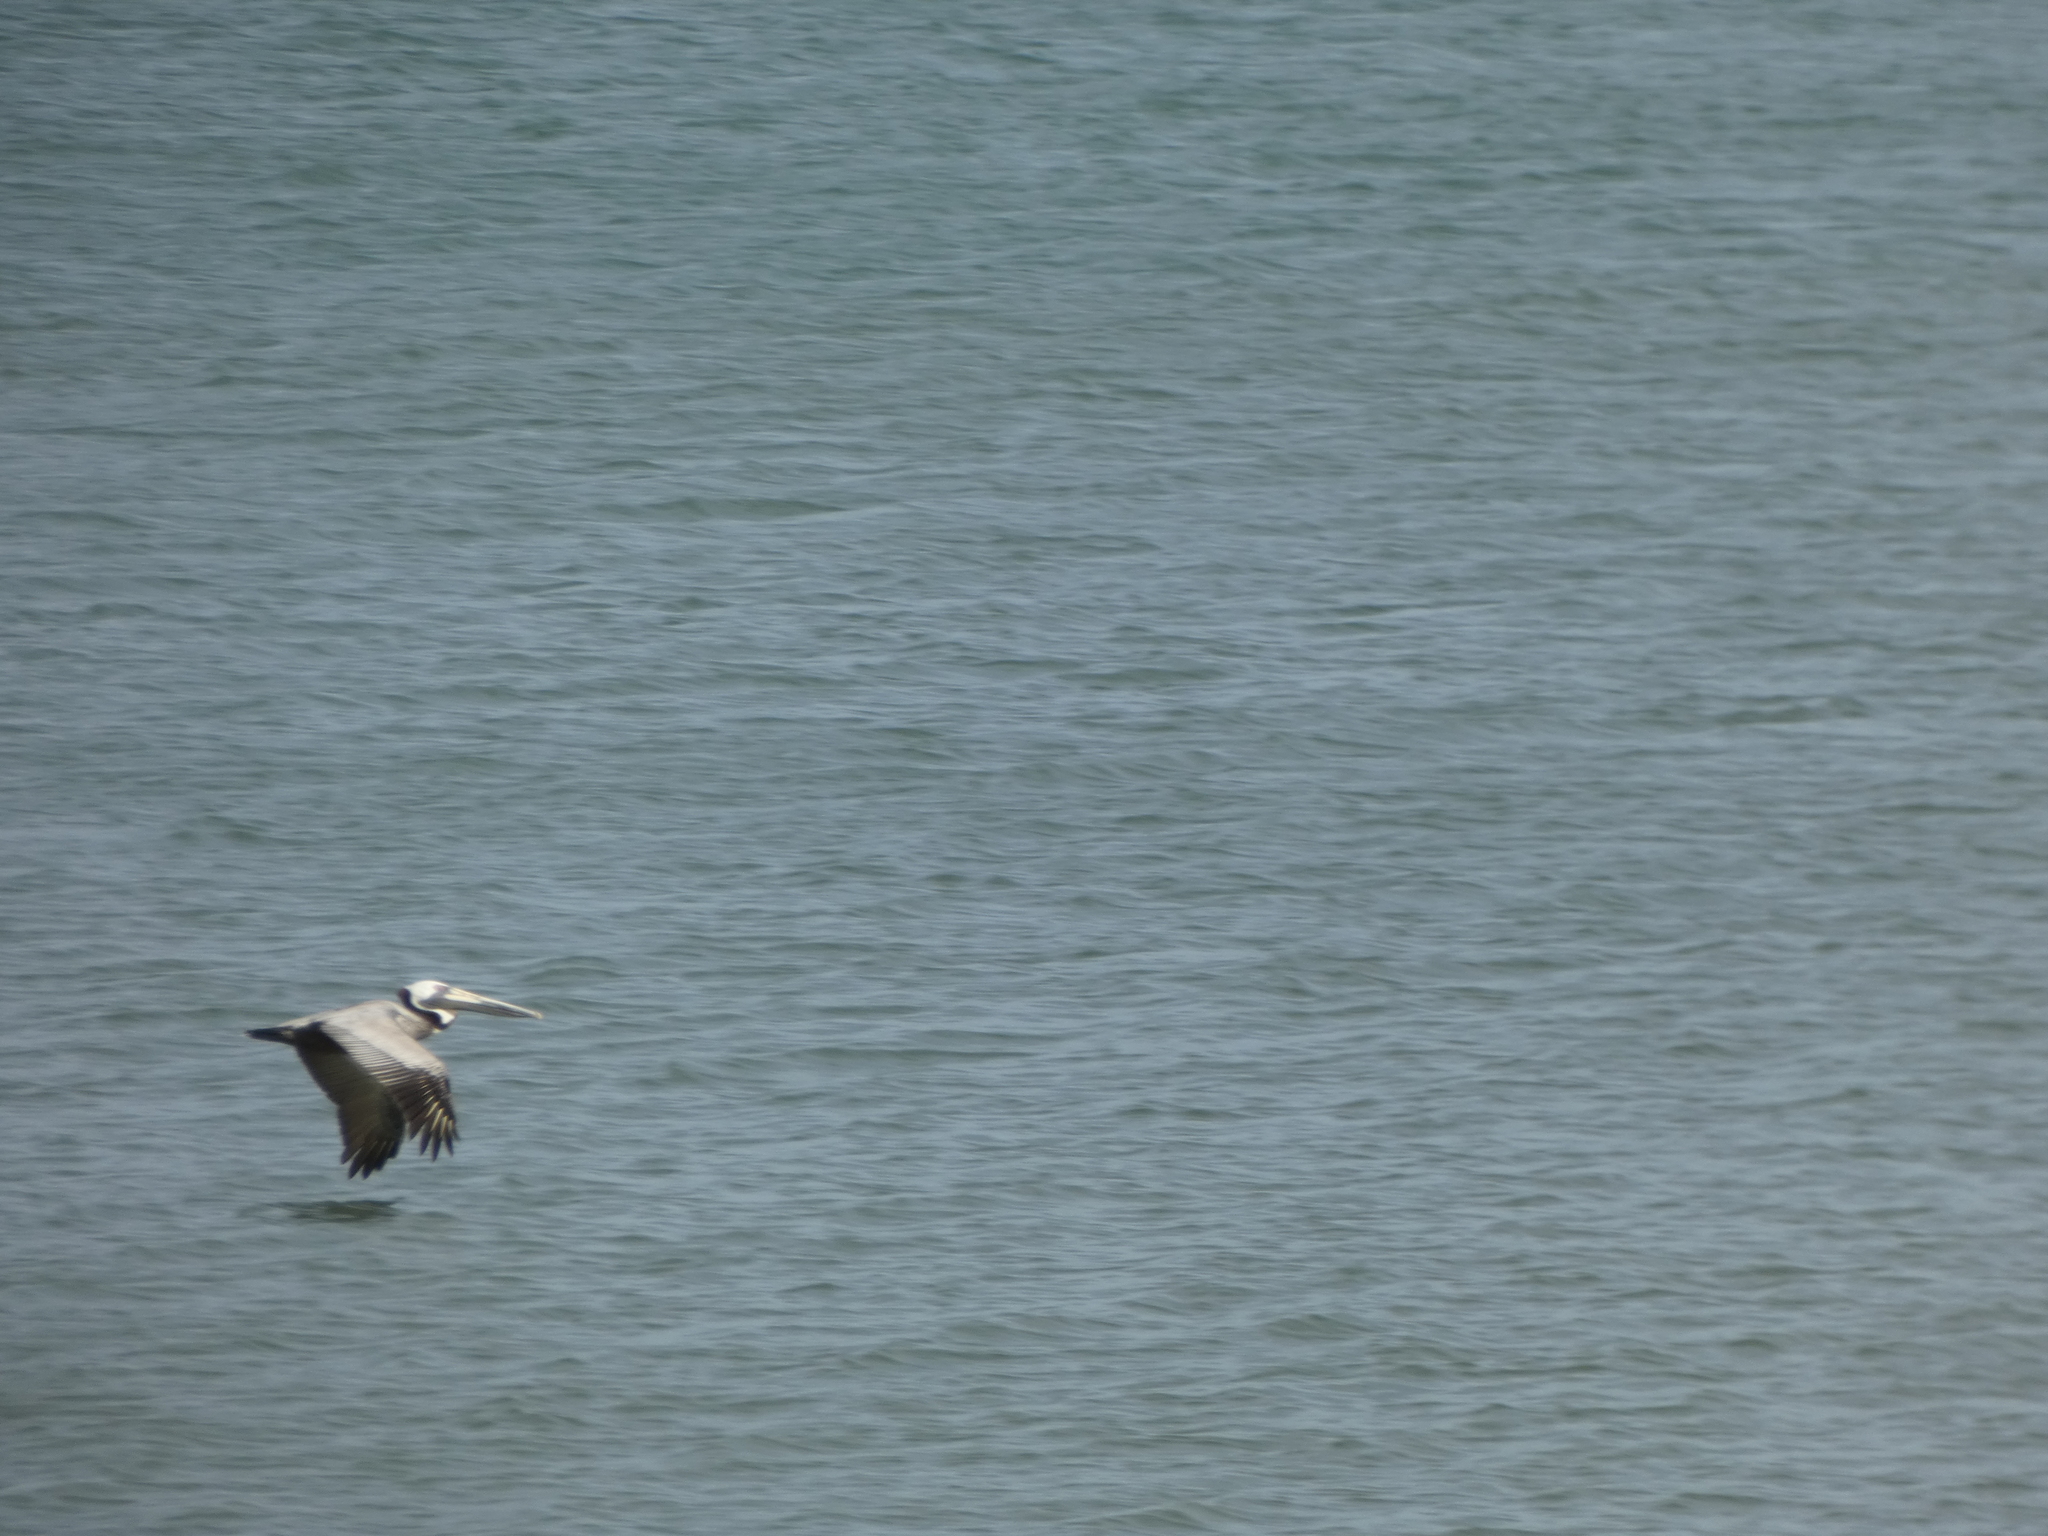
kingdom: Animalia
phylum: Chordata
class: Aves
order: Pelecaniformes
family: Pelecanidae
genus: Pelecanus
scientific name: Pelecanus occidentalis
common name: Brown pelican
